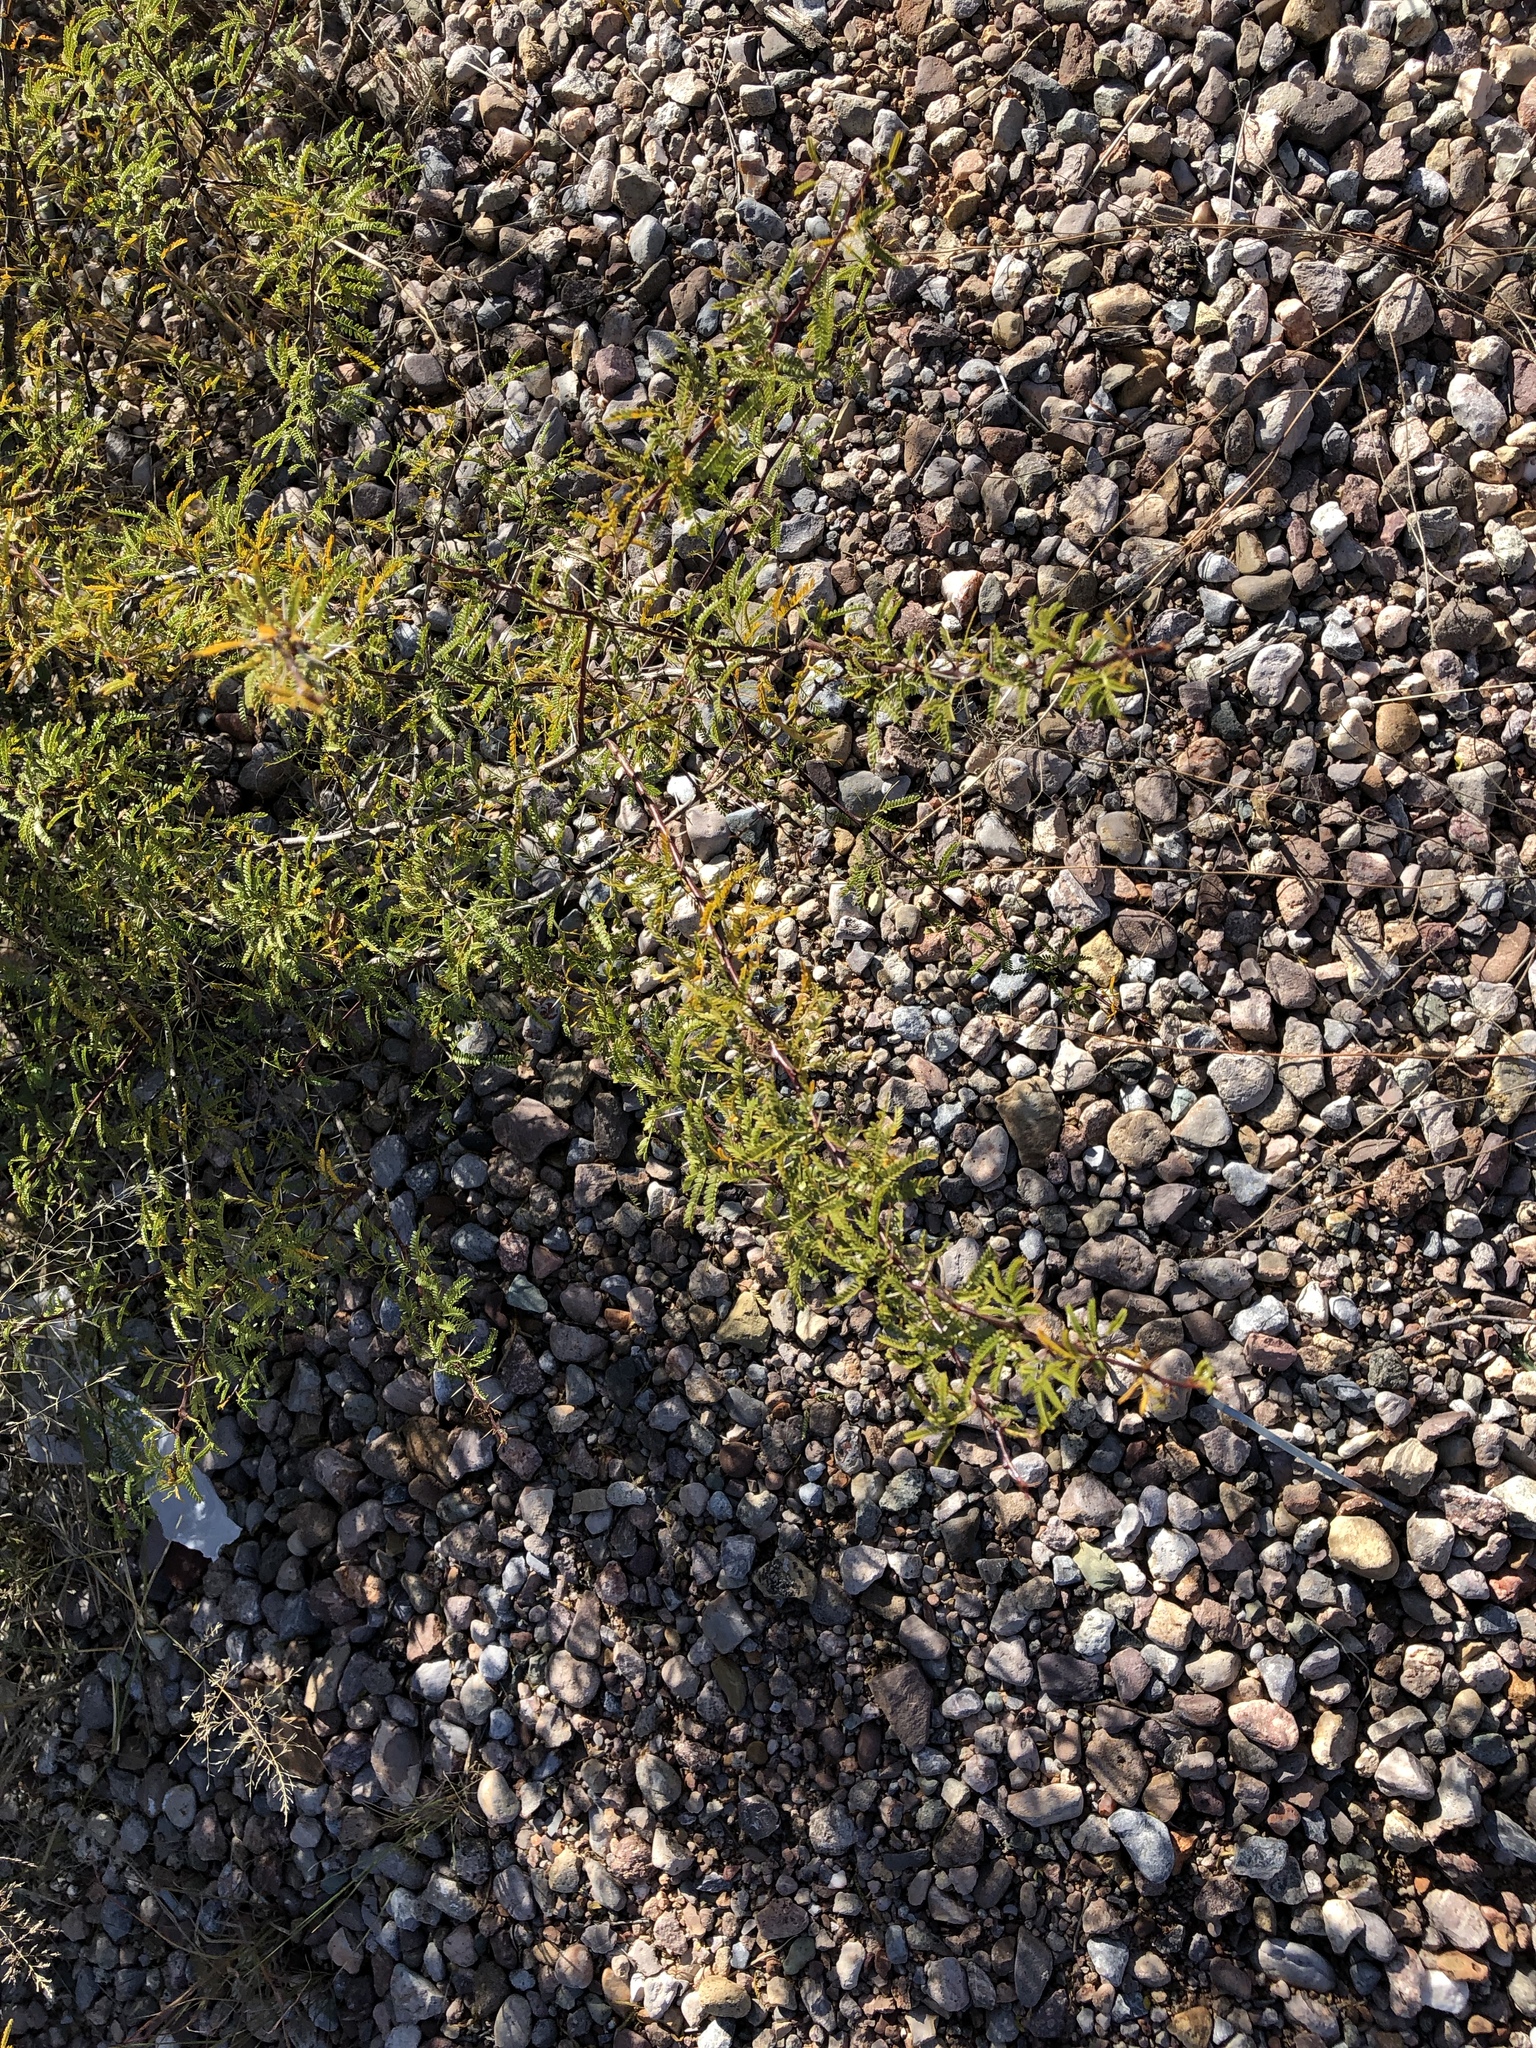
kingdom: Plantae
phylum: Tracheophyta
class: Magnoliopsida
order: Fabales
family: Fabaceae
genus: Vachellia
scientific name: Vachellia constricta
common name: Mescat acacia
